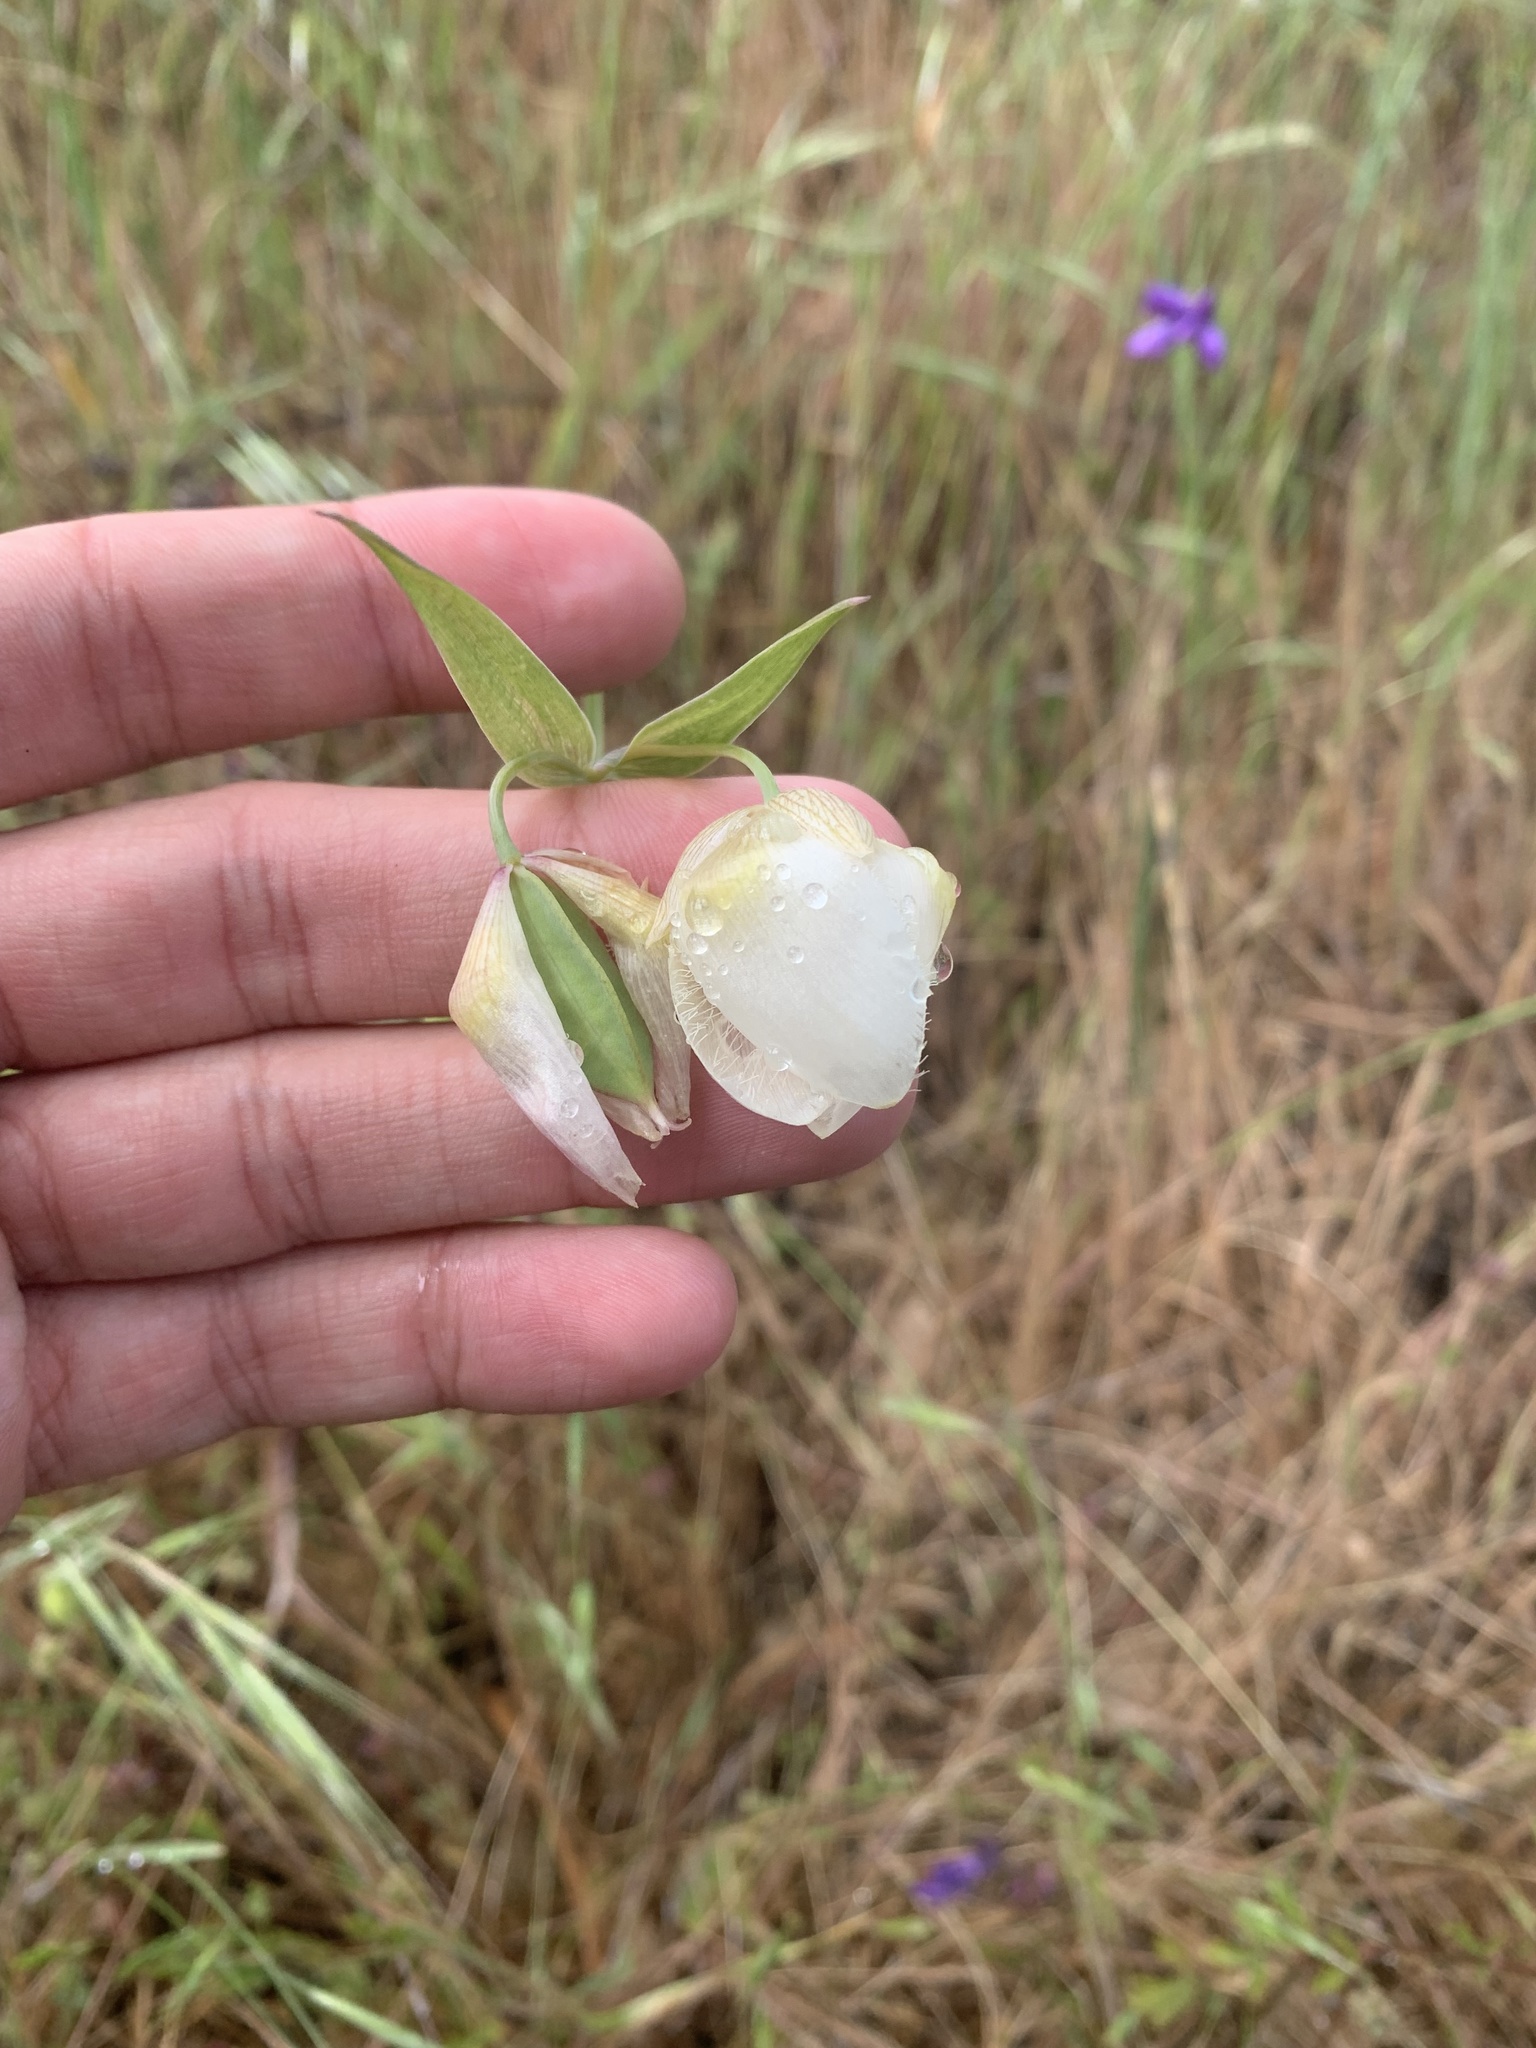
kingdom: Plantae
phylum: Tracheophyta
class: Liliopsida
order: Liliales
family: Liliaceae
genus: Calochortus
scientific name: Calochortus albus
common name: Fairy-lantern
